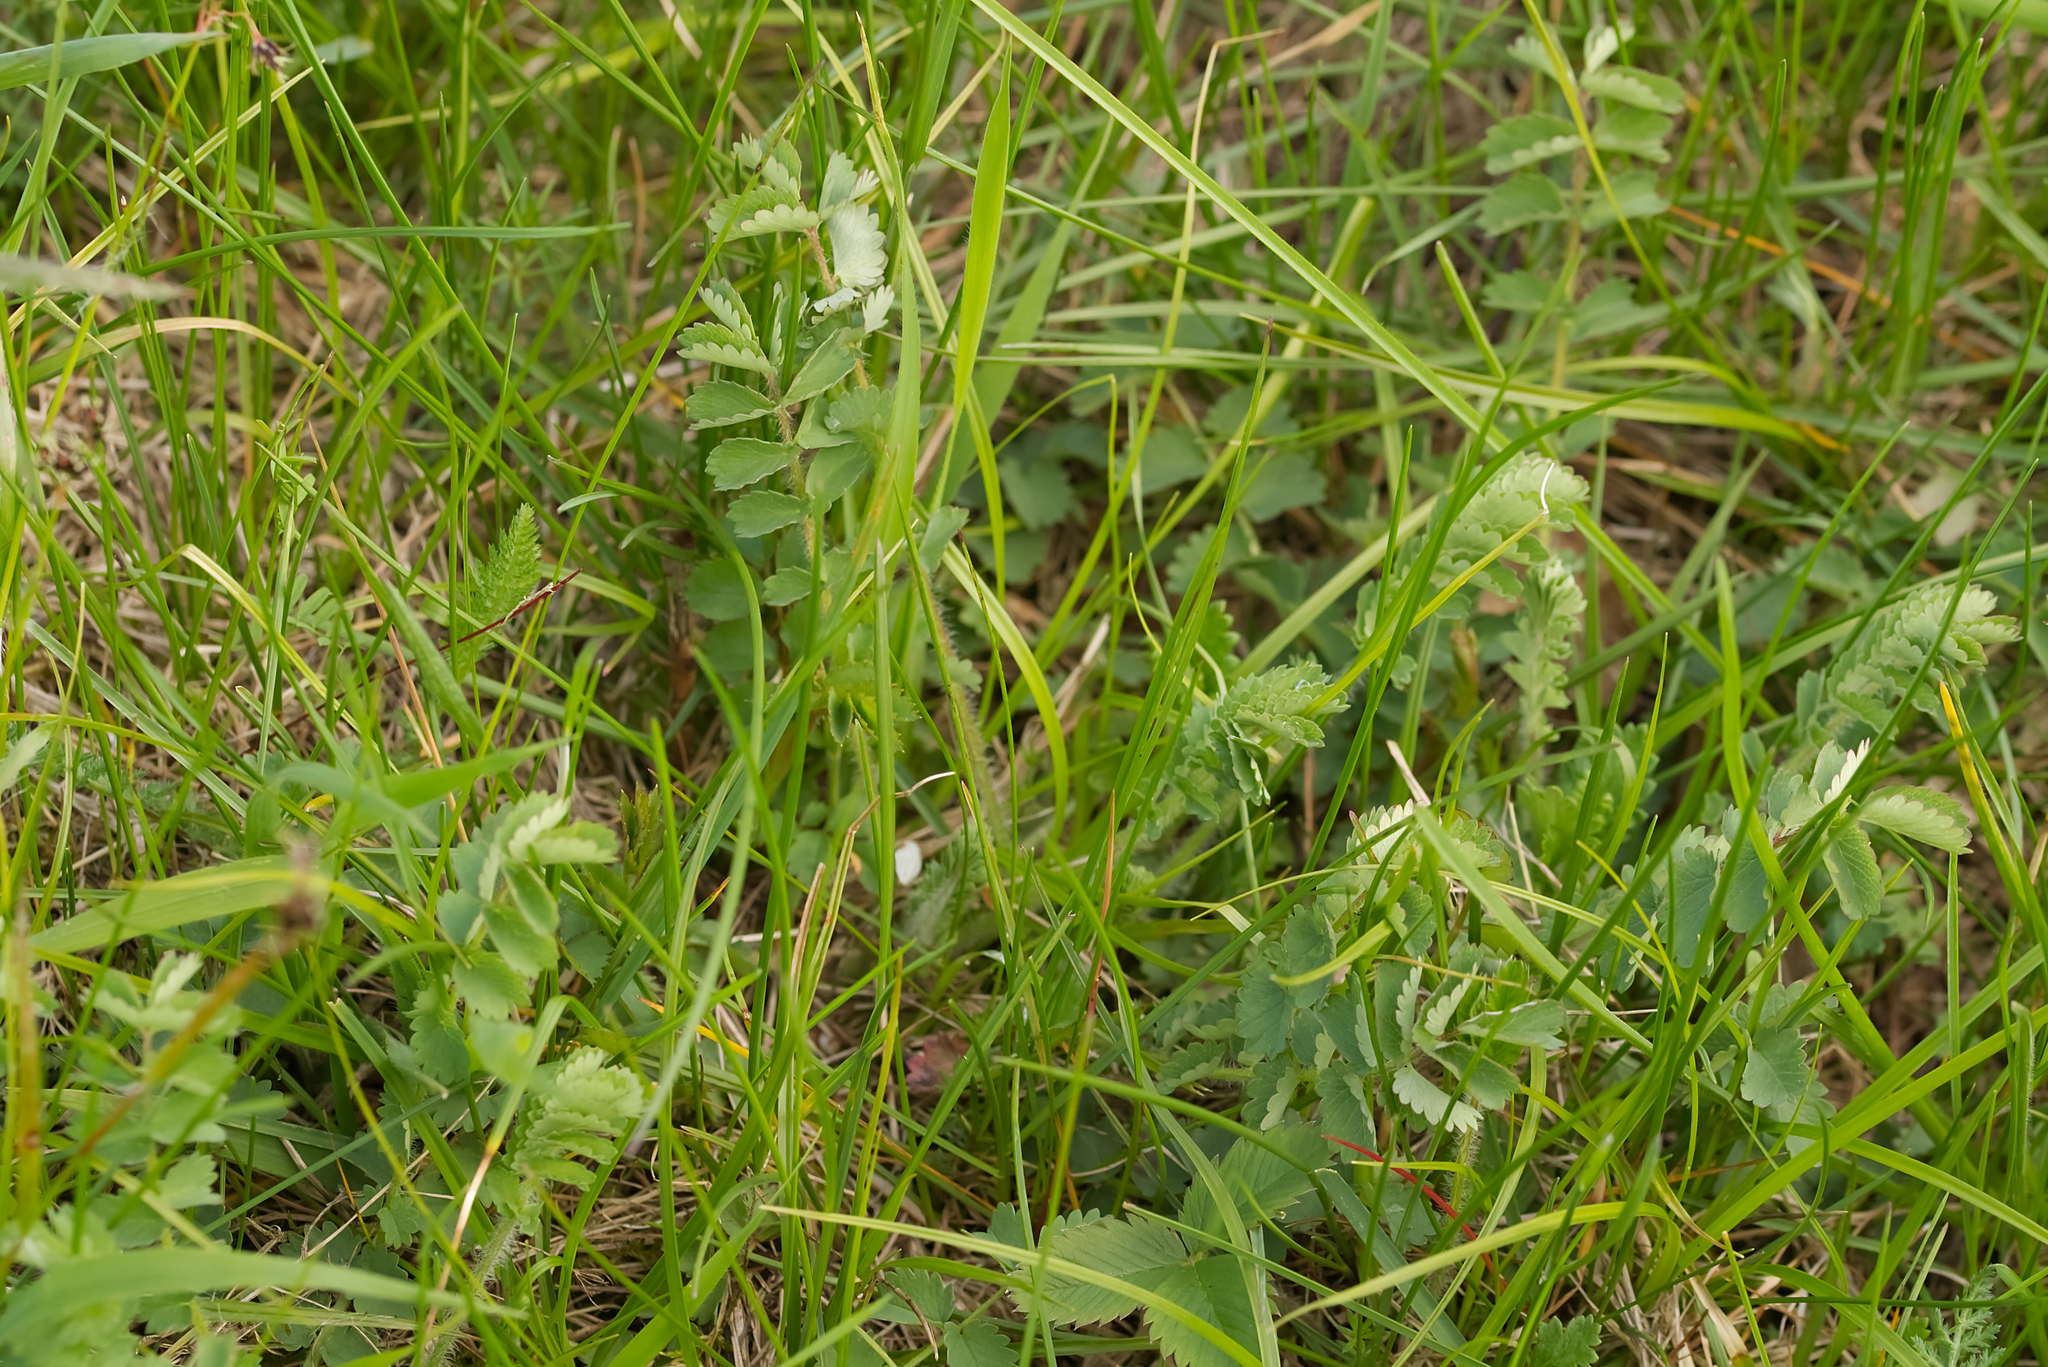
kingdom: Plantae
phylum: Tracheophyta
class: Magnoliopsida
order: Rosales
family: Rosaceae
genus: Poterium
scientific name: Poterium sanguisorba
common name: Salad burnet
